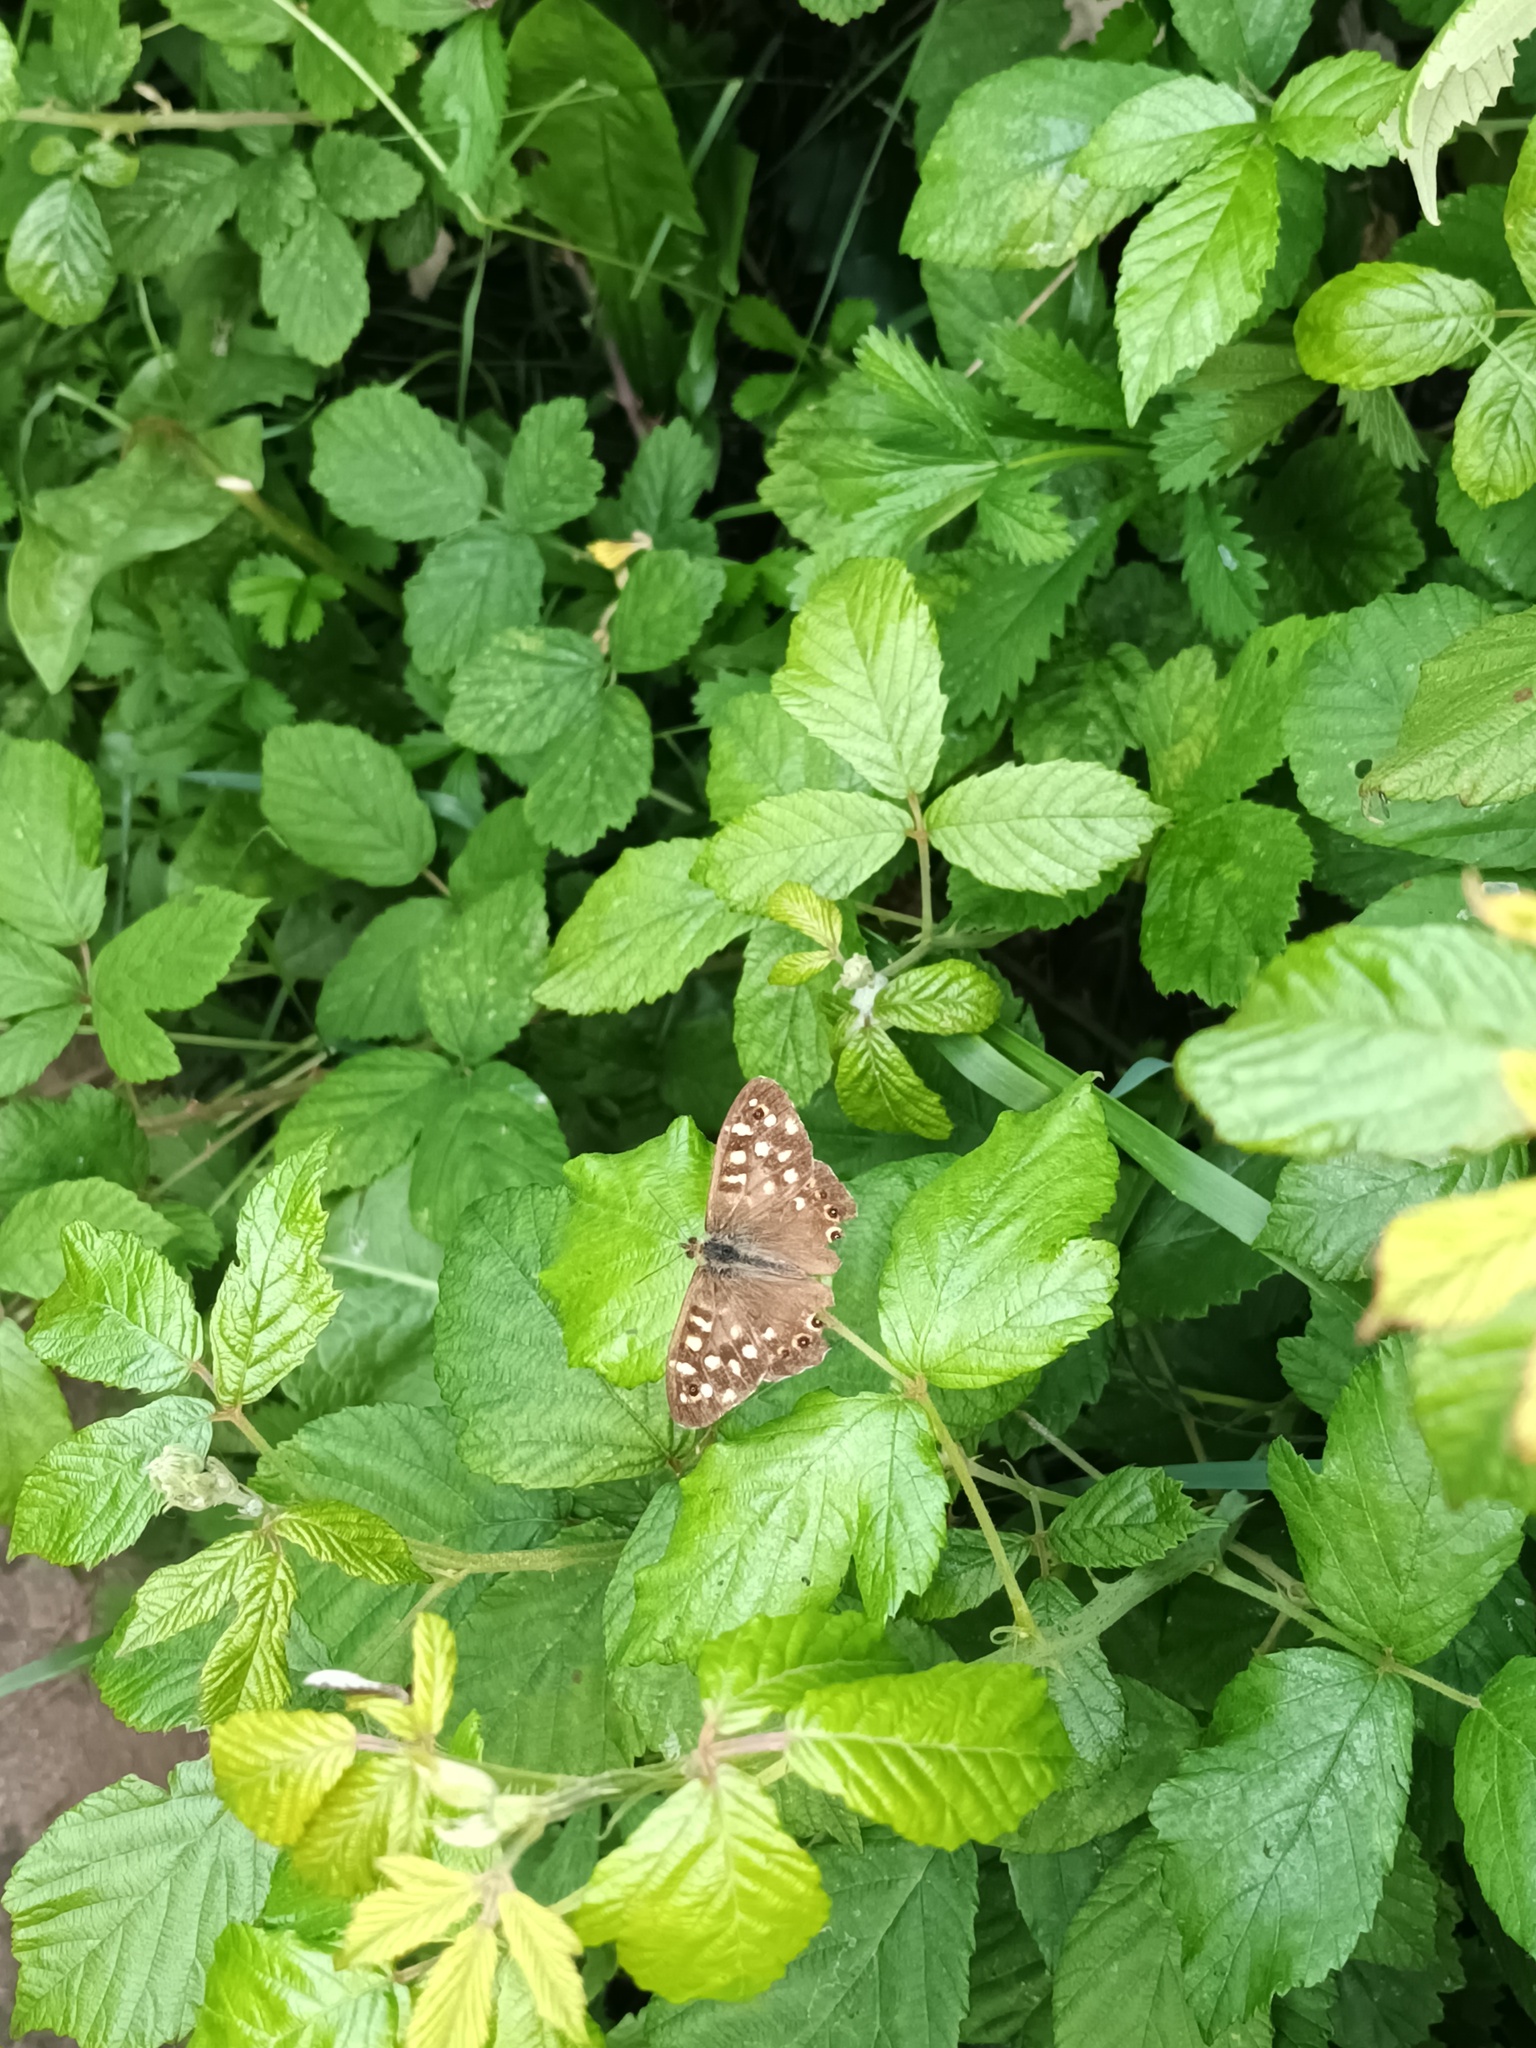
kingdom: Animalia
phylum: Arthropoda
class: Insecta
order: Lepidoptera
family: Nymphalidae
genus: Pararge
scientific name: Pararge aegeria
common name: Speckled wood
